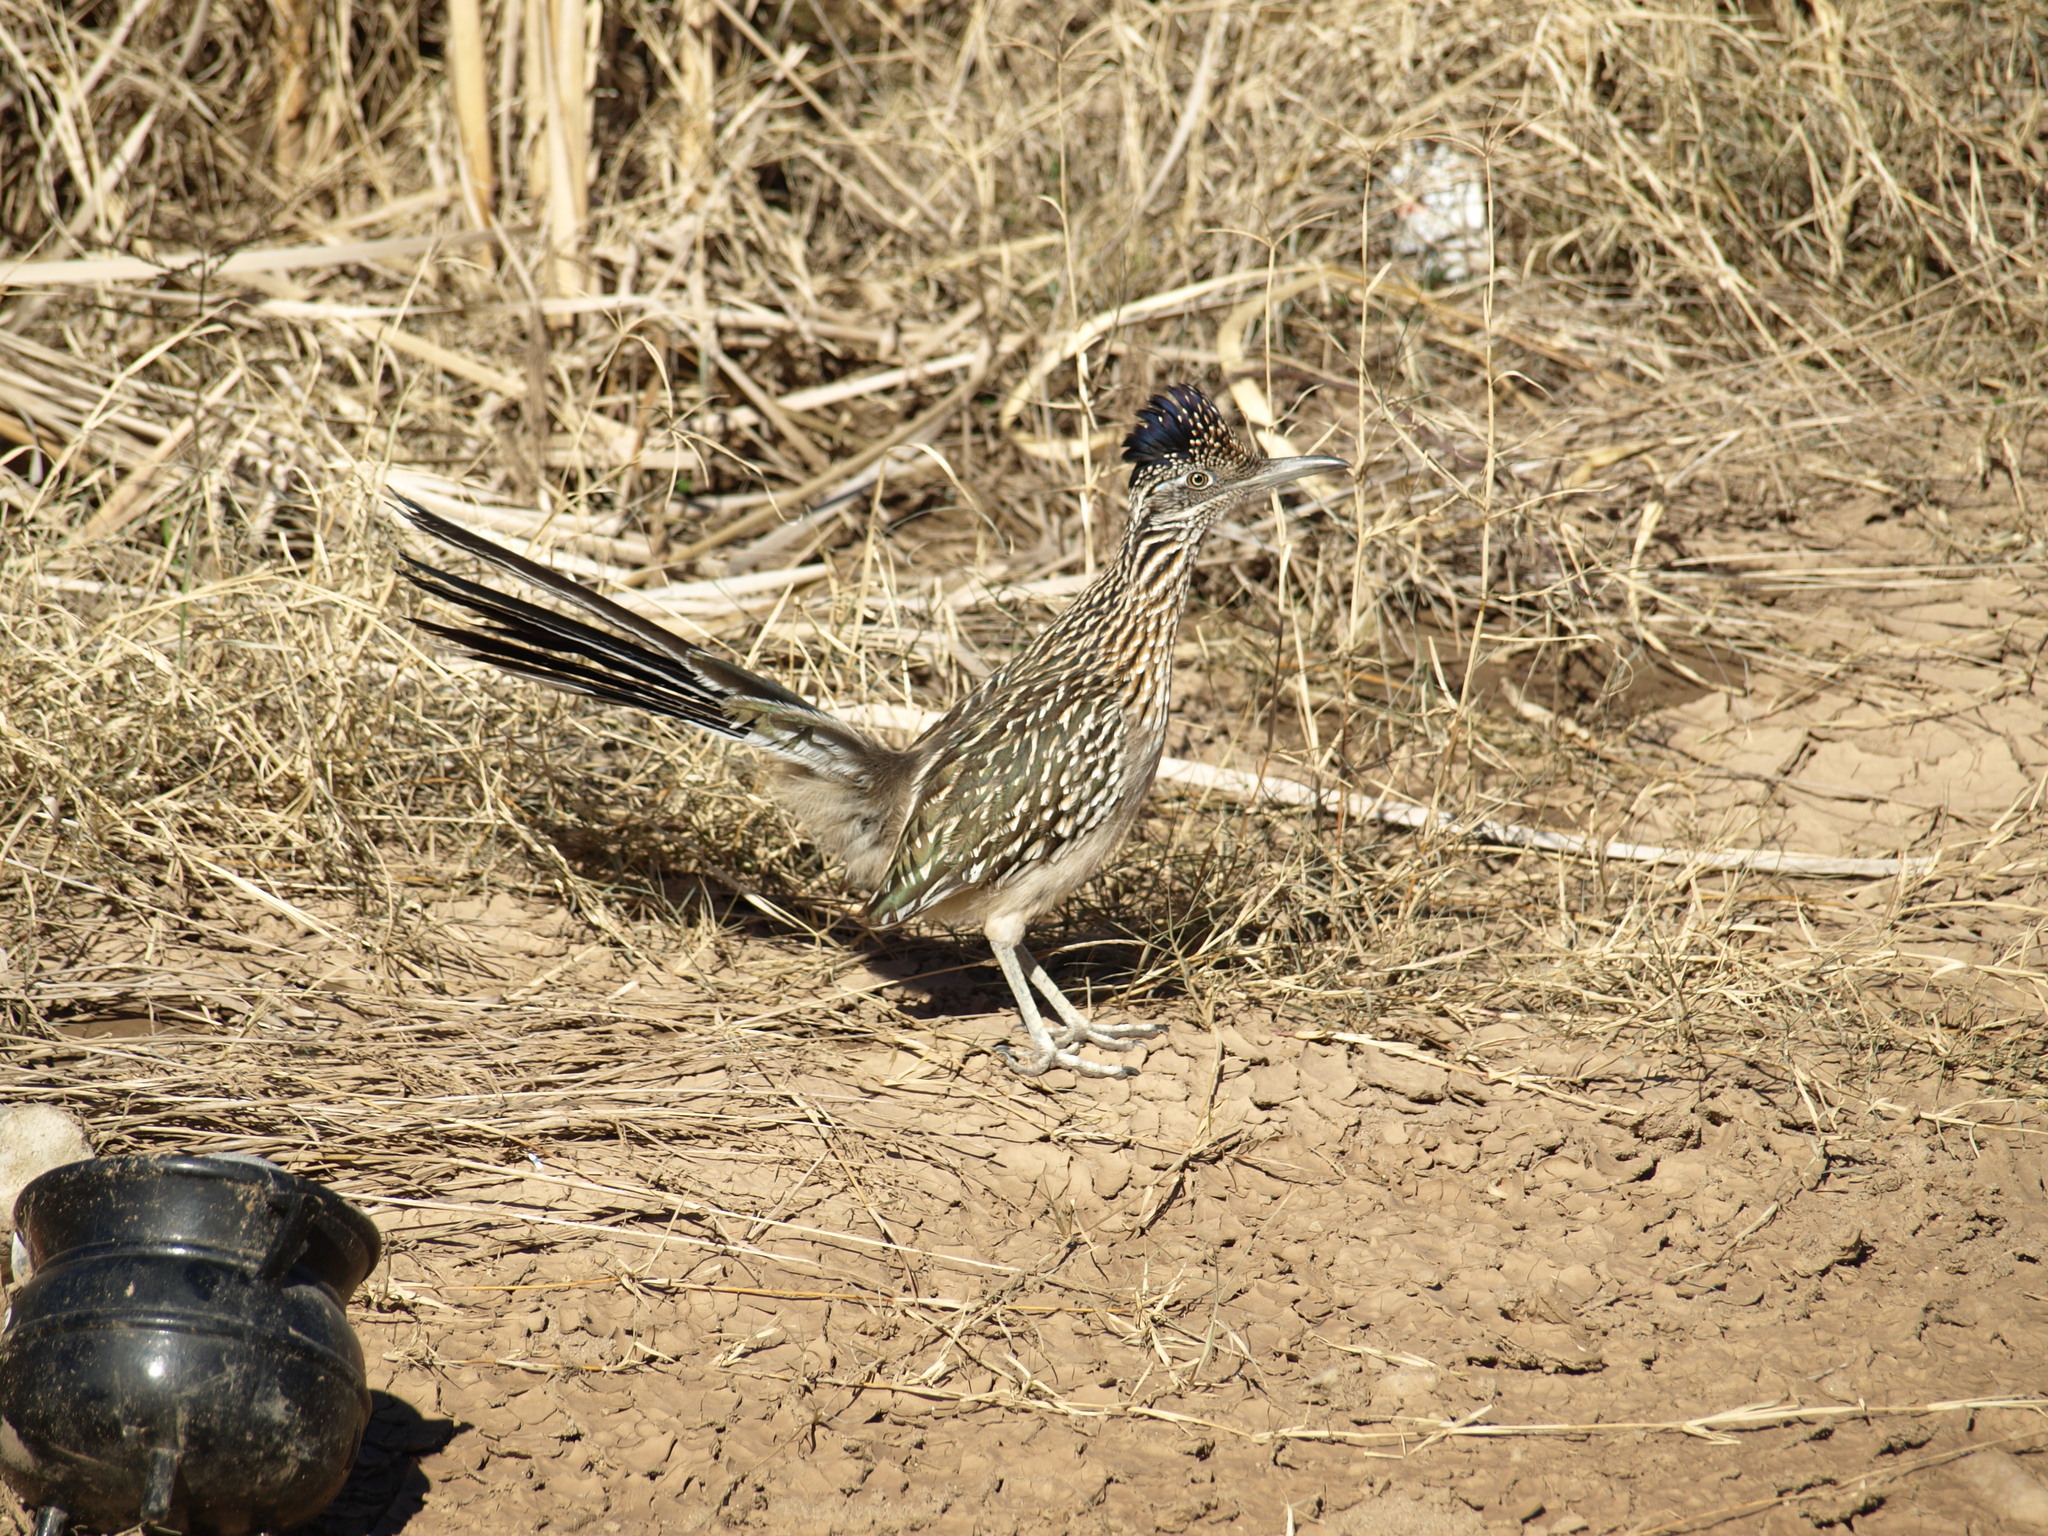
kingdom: Animalia
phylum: Chordata
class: Aves
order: Cuculiformes
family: Cuculidae
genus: Geococcyx
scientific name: Geococcyx californianus
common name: Greater roadrunner
